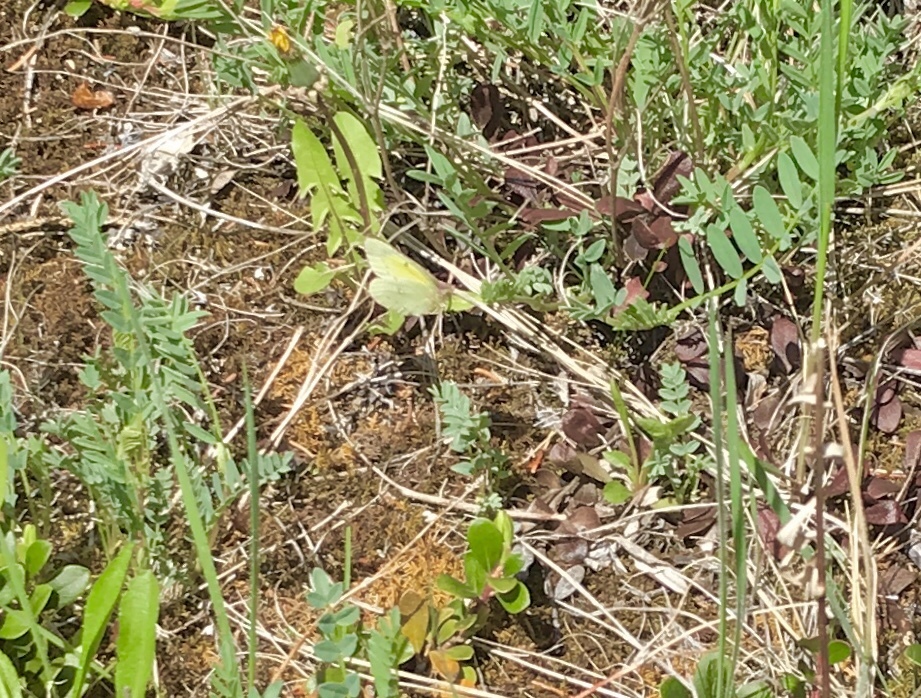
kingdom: Animalia
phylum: Arthropoda
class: Insecta
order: Lepidoptera
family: Pieridae
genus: Colias
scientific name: Colias philodice
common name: Clouded sulphur
